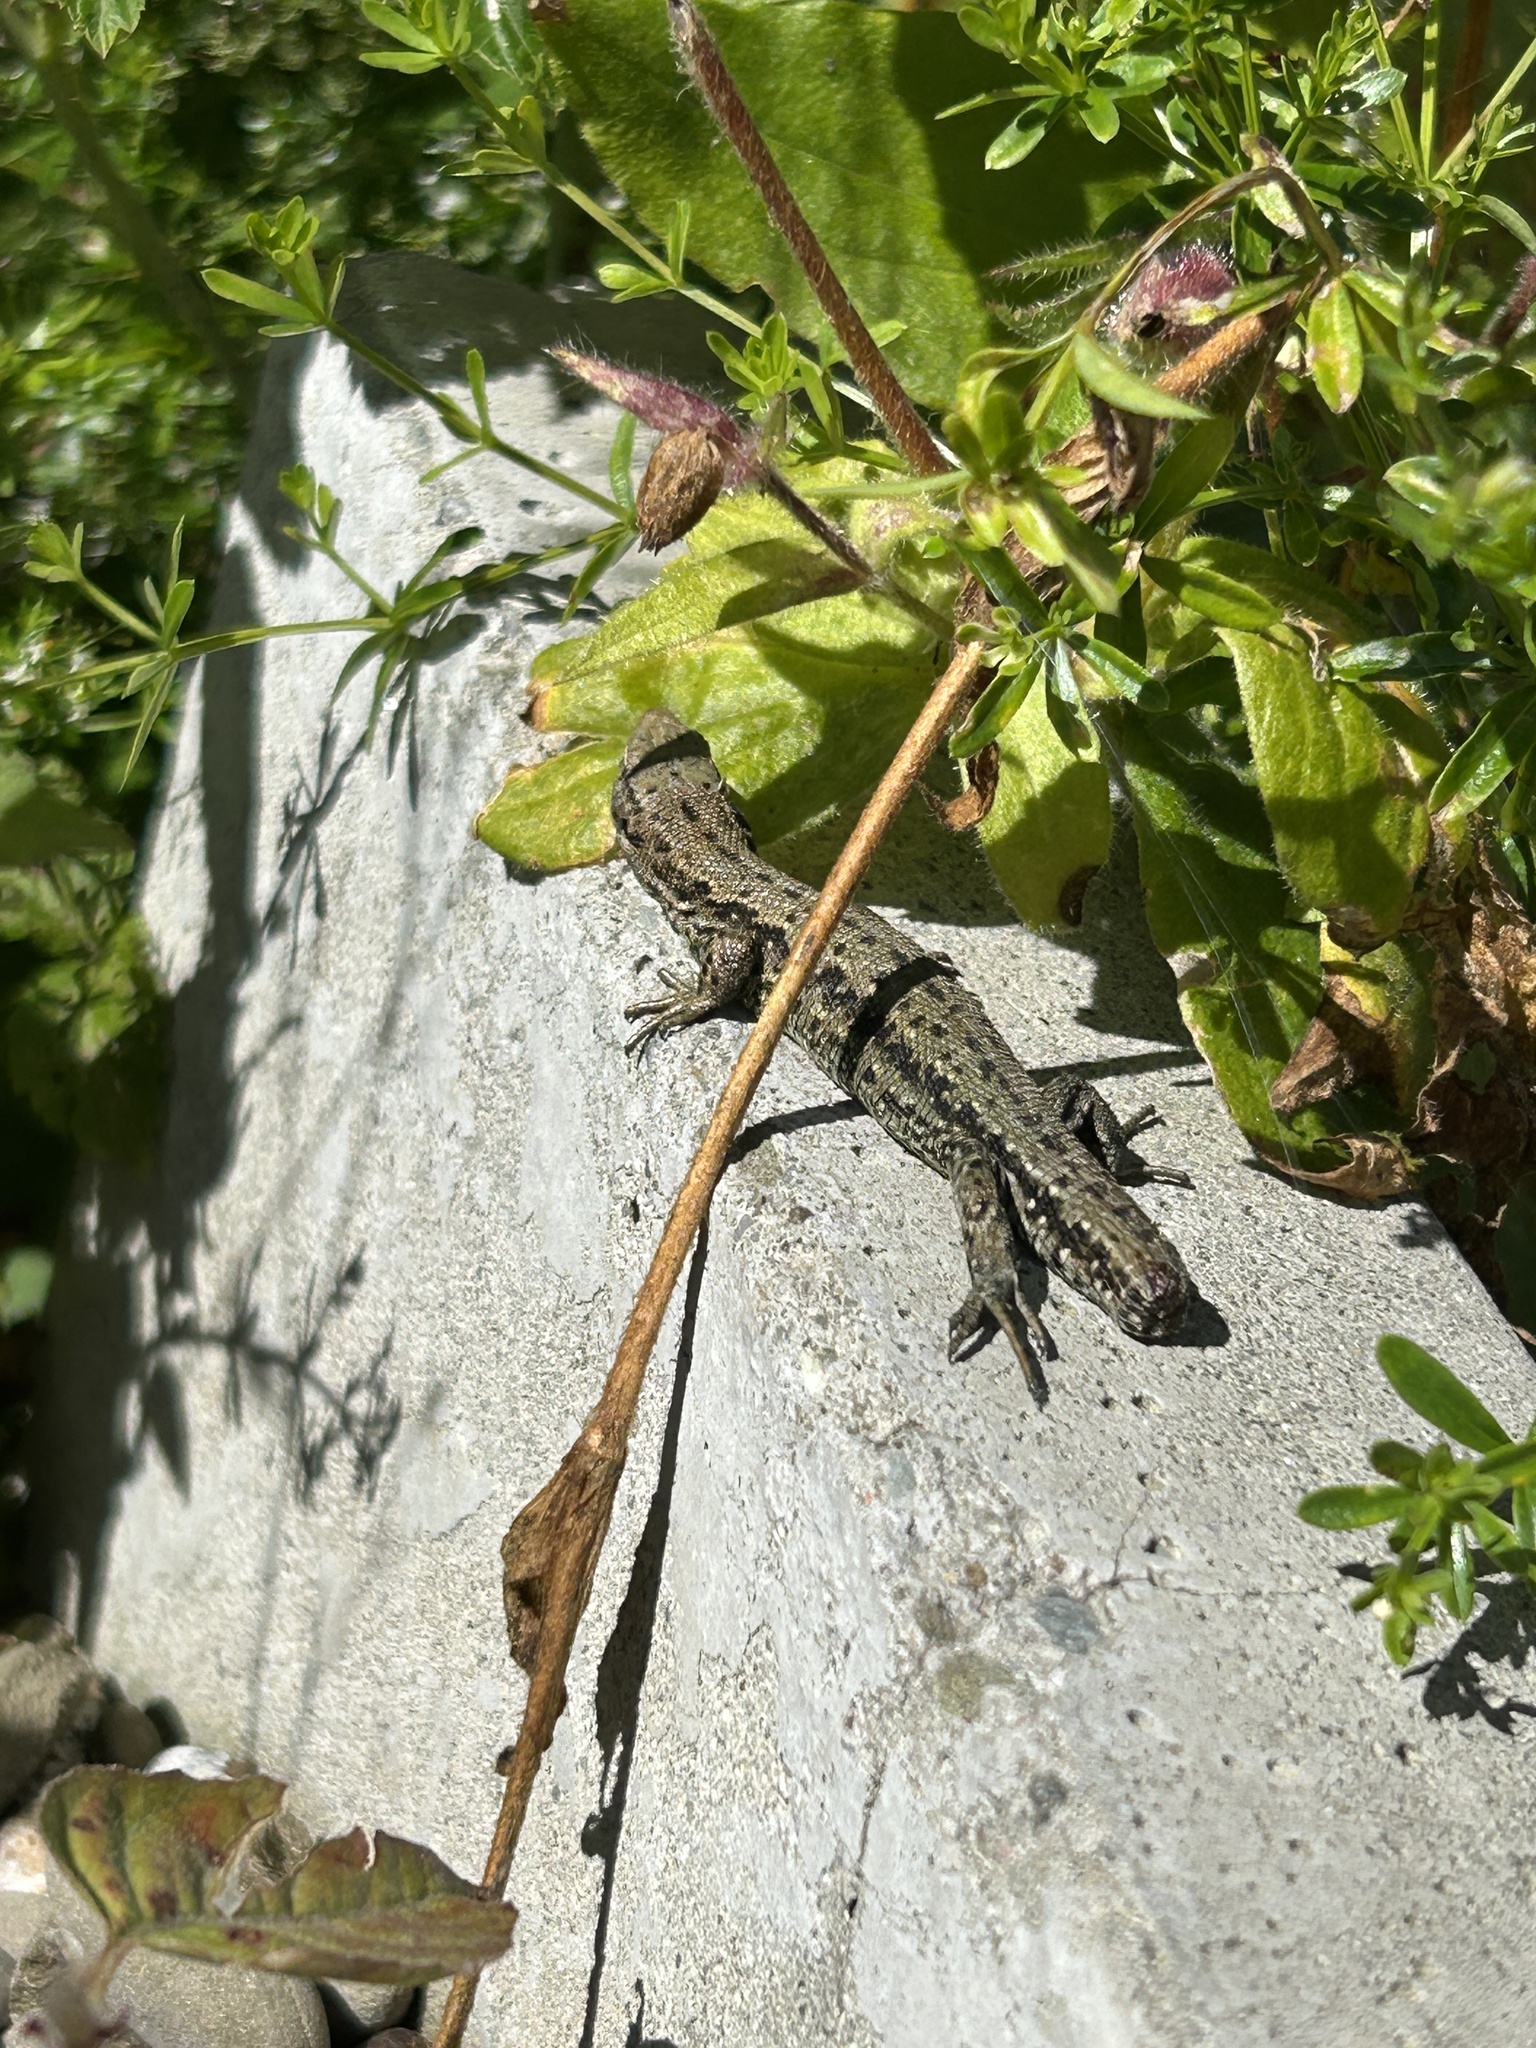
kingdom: Animalia
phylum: Chordata
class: Squamata
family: Lacertidae
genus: Zootoca
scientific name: Zootoca vivipara
